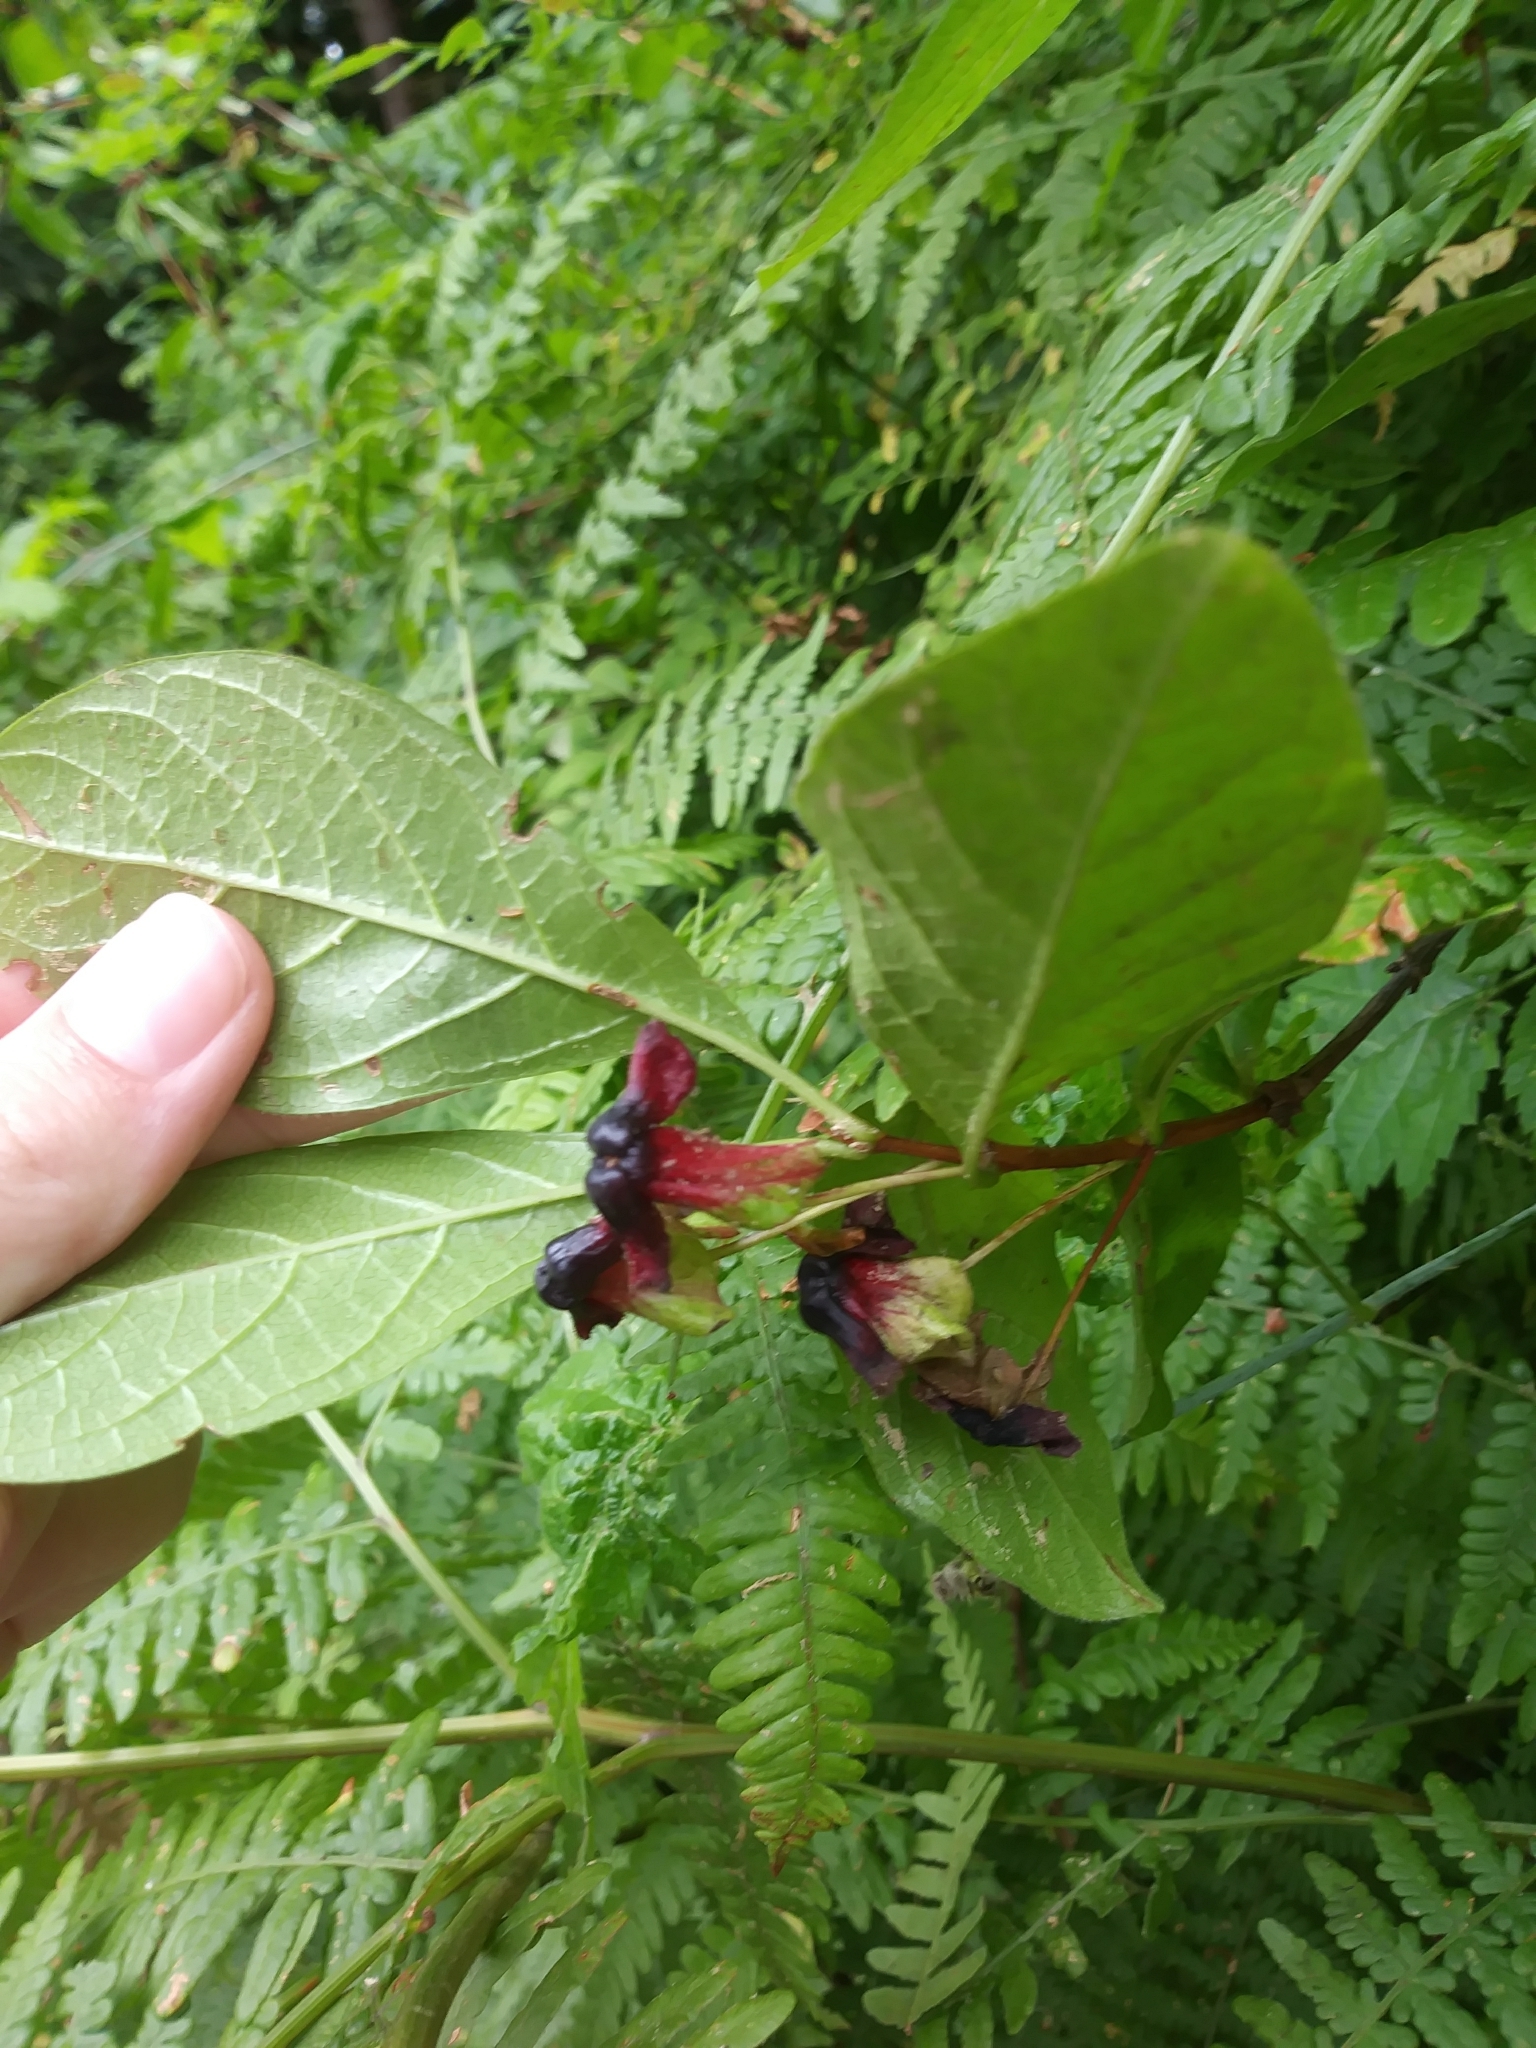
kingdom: Plantae
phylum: Tracheophyta
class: Magnoliopsida
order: Dipsacales
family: Caprifoliaceae
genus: Lonicera
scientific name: Lonicera involucrata
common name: Californian honeysuckle
